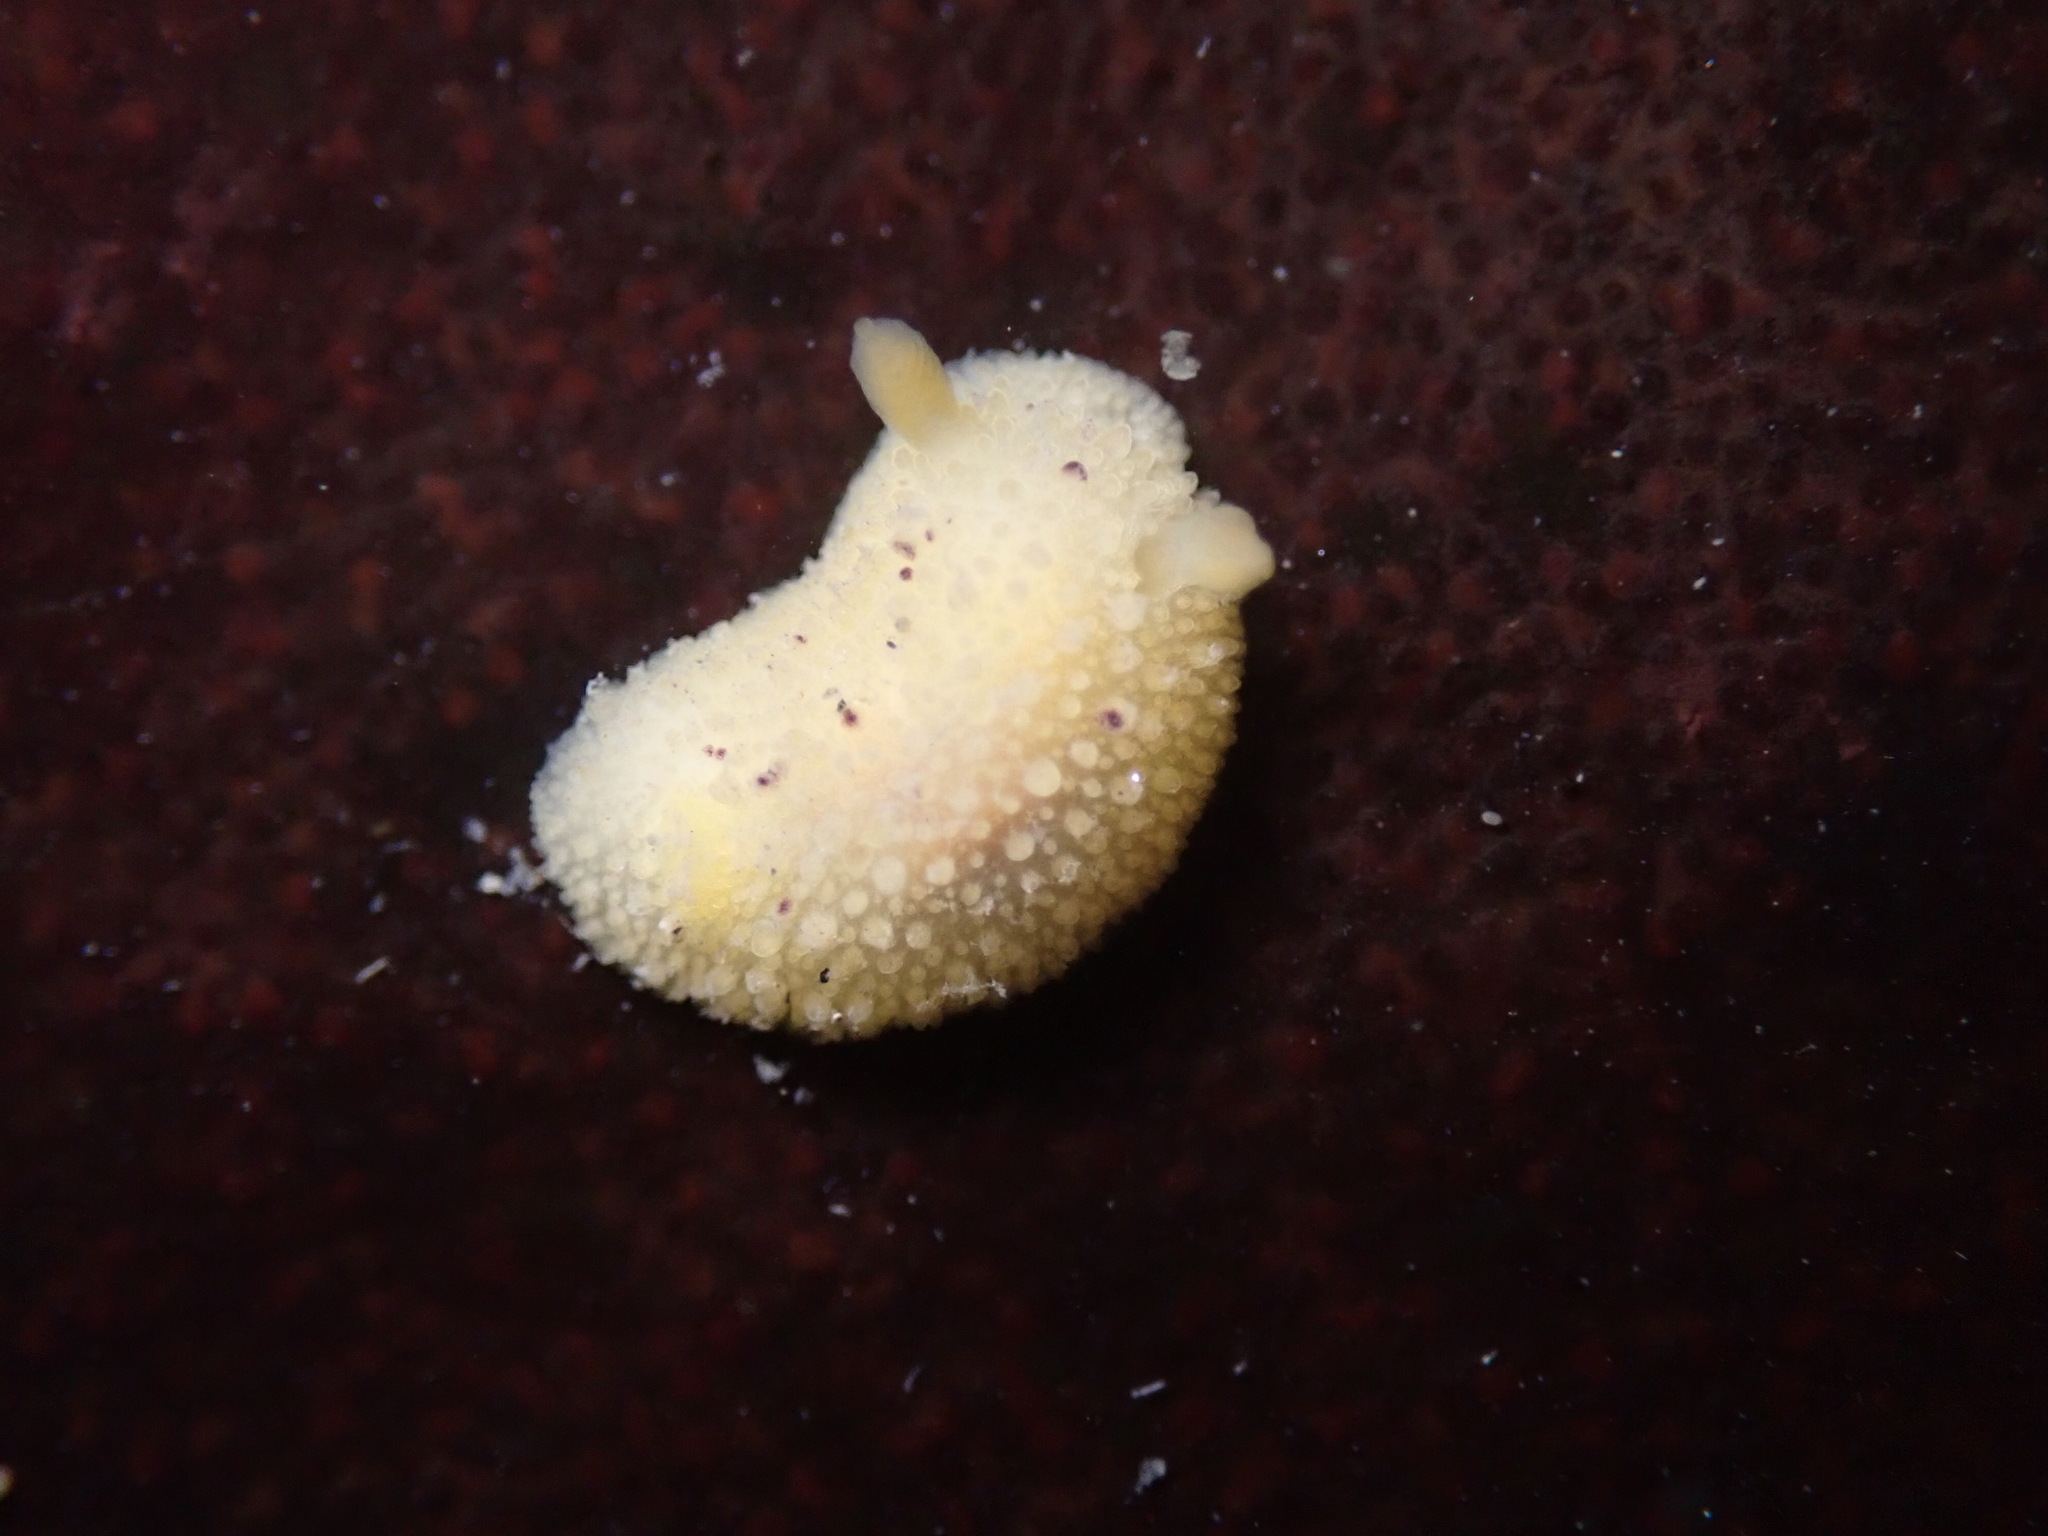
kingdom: Animalia
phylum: Mollusca
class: Gastropoda
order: Nudibranchia
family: Dorididae
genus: Doris
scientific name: Doris montereyensis
